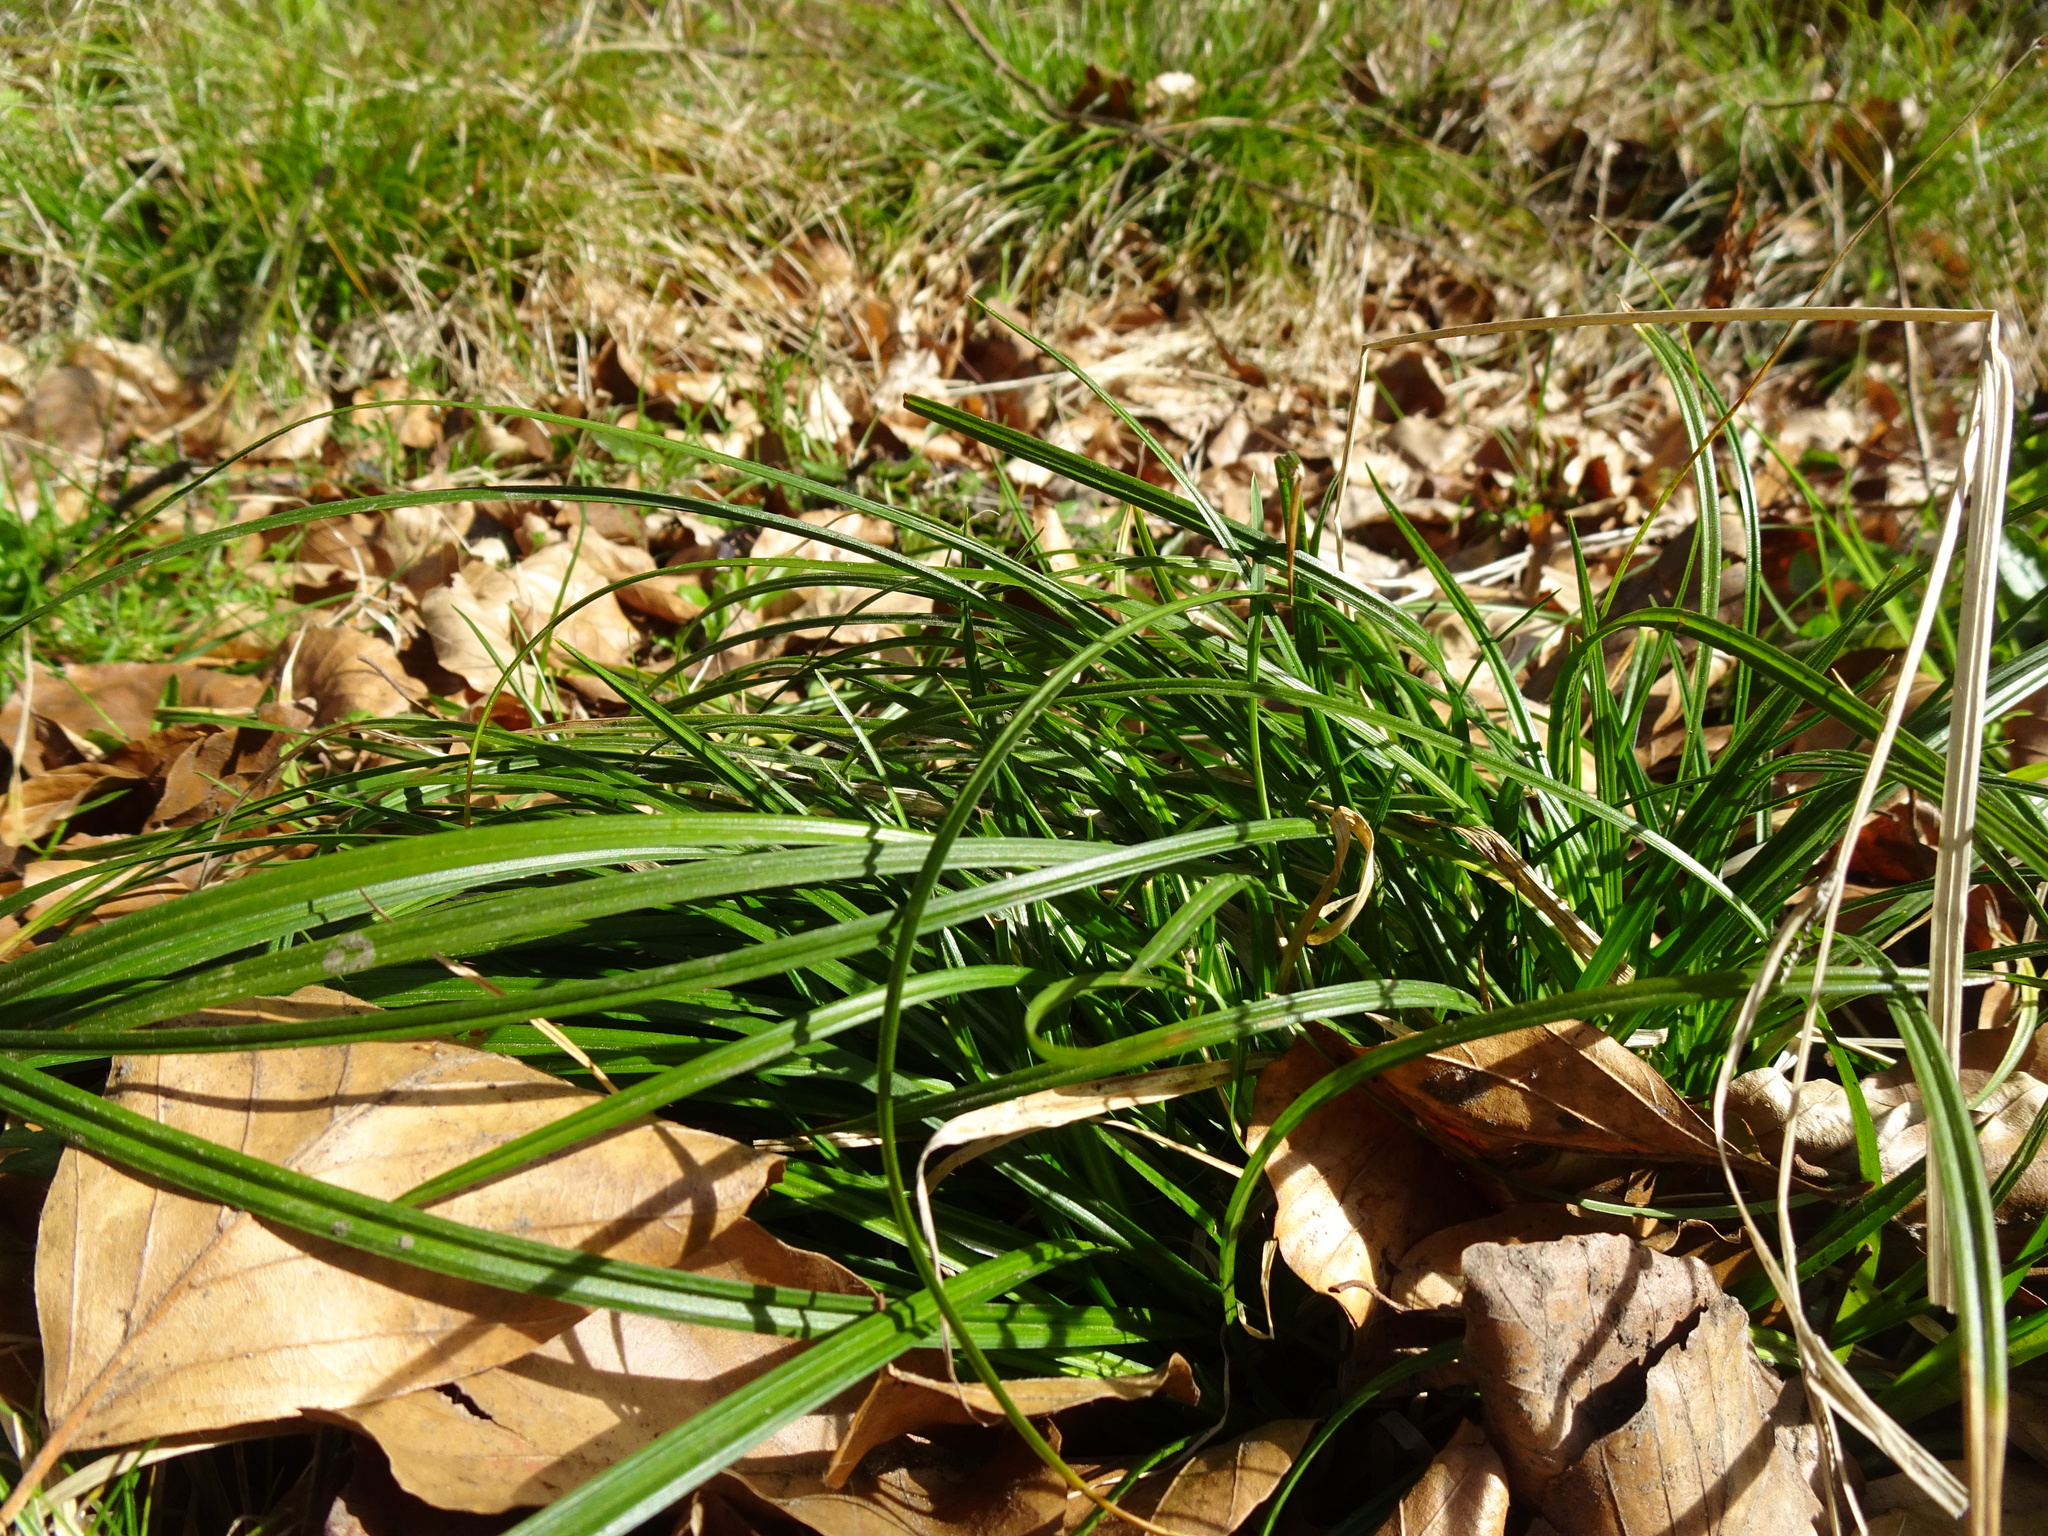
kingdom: Plantae
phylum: Tracheophyta
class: Liliopsida
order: Poales
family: Cyperaceae
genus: Carex
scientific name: Carex sylvatica
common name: Wood-sedge
